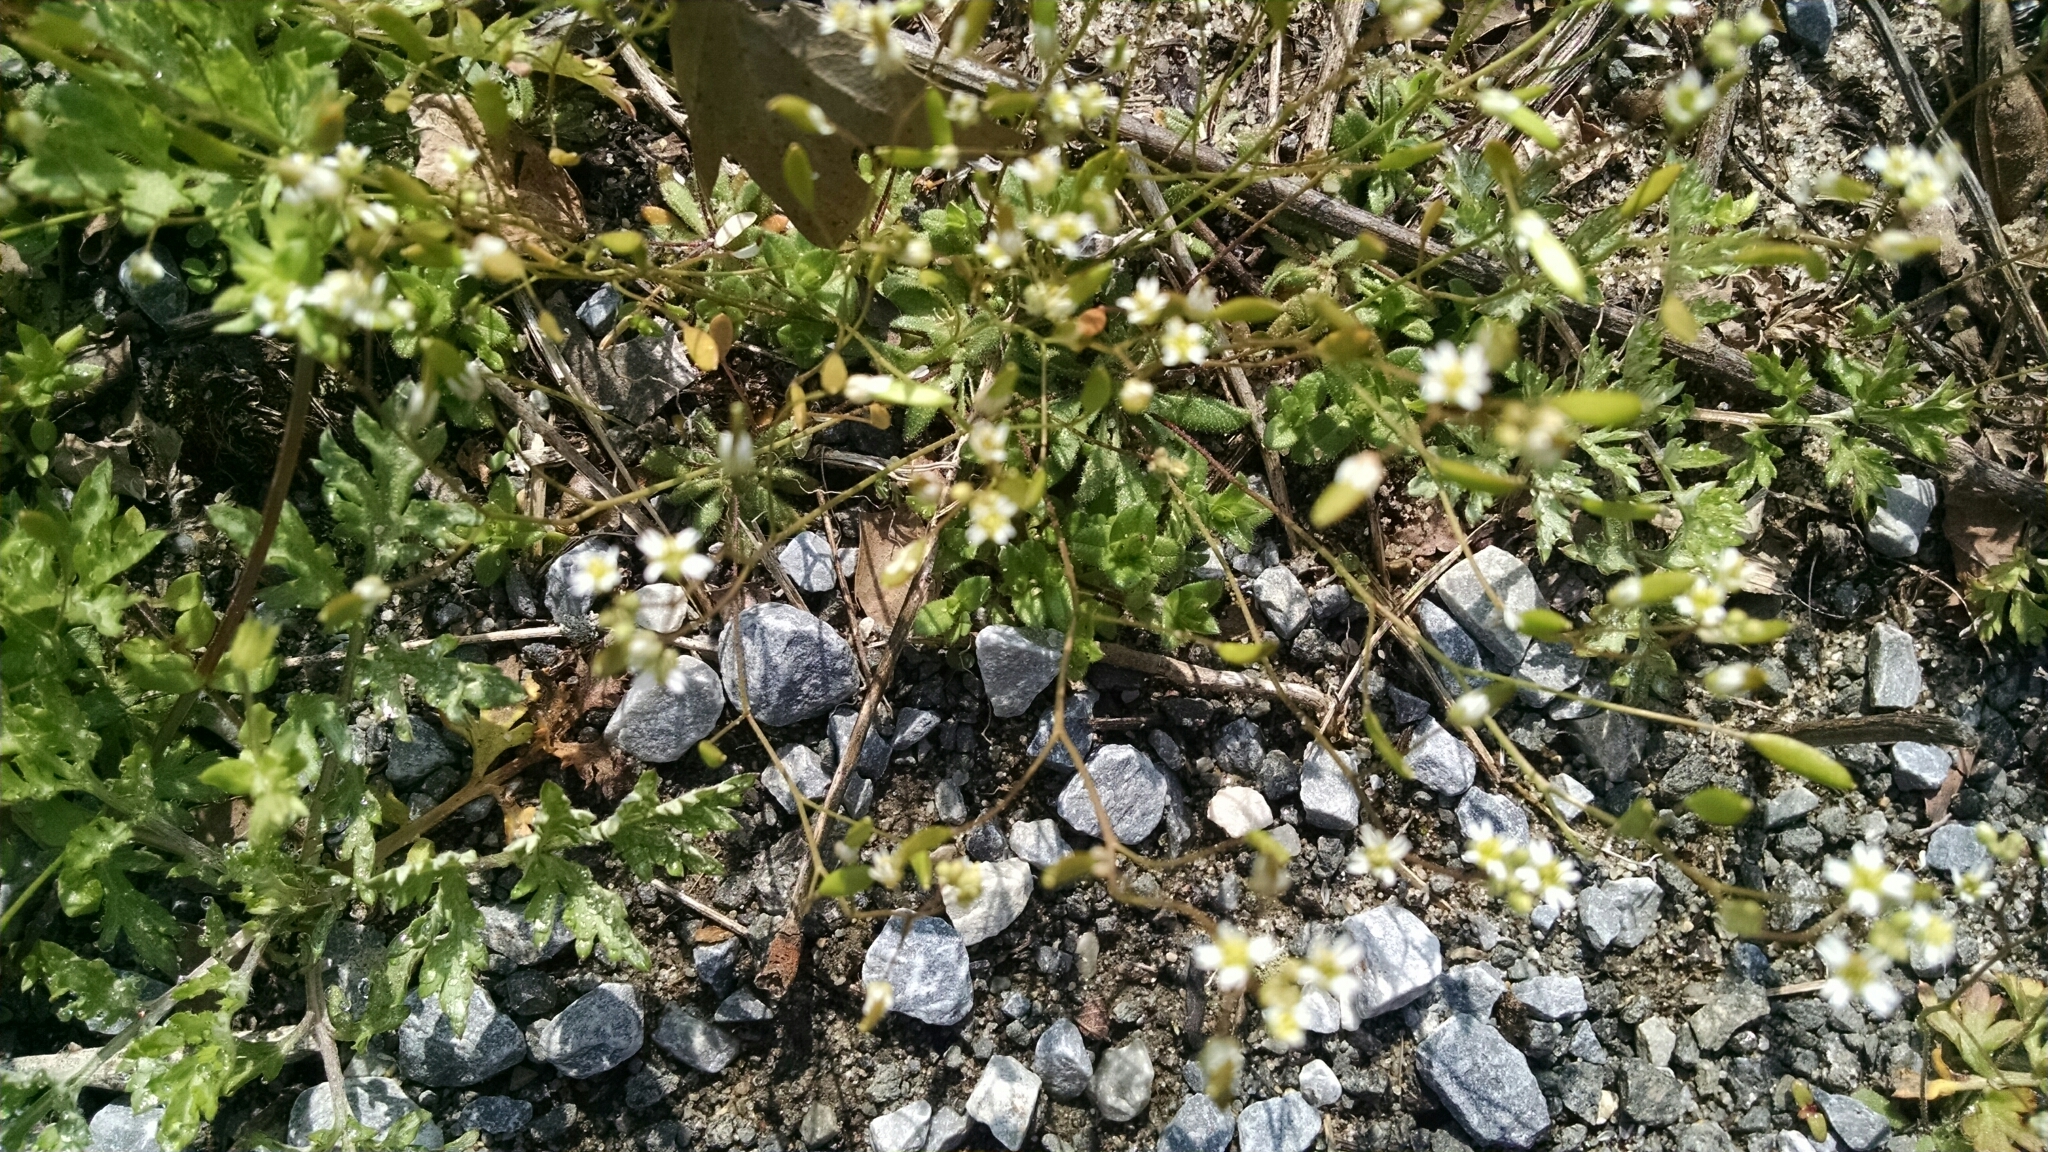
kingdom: Plantae
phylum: Tracheophyta
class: Magnoliopsida
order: Brassicales
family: Brassicaceae
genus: Draba
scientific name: Draba verna
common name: Spring draba
